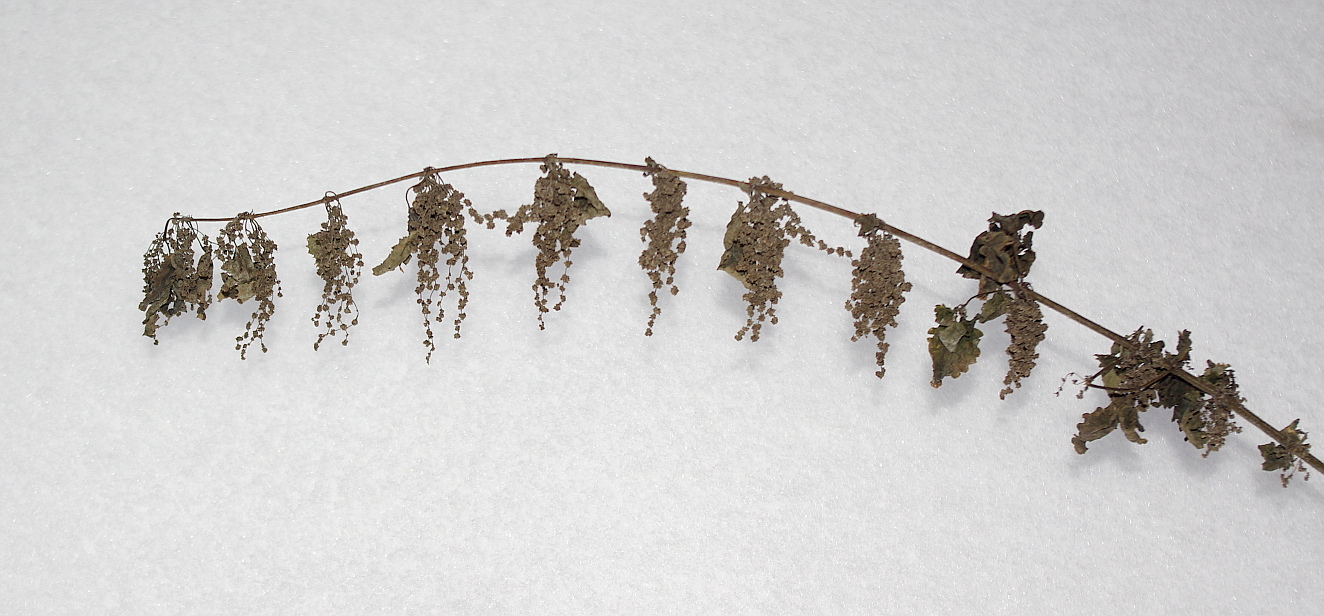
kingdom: Plantae
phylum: Tracheophyta
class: Magnoliopsida
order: Rosales
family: Urticaceae
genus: Urtica
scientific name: Urtica dioica
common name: Common nettle
